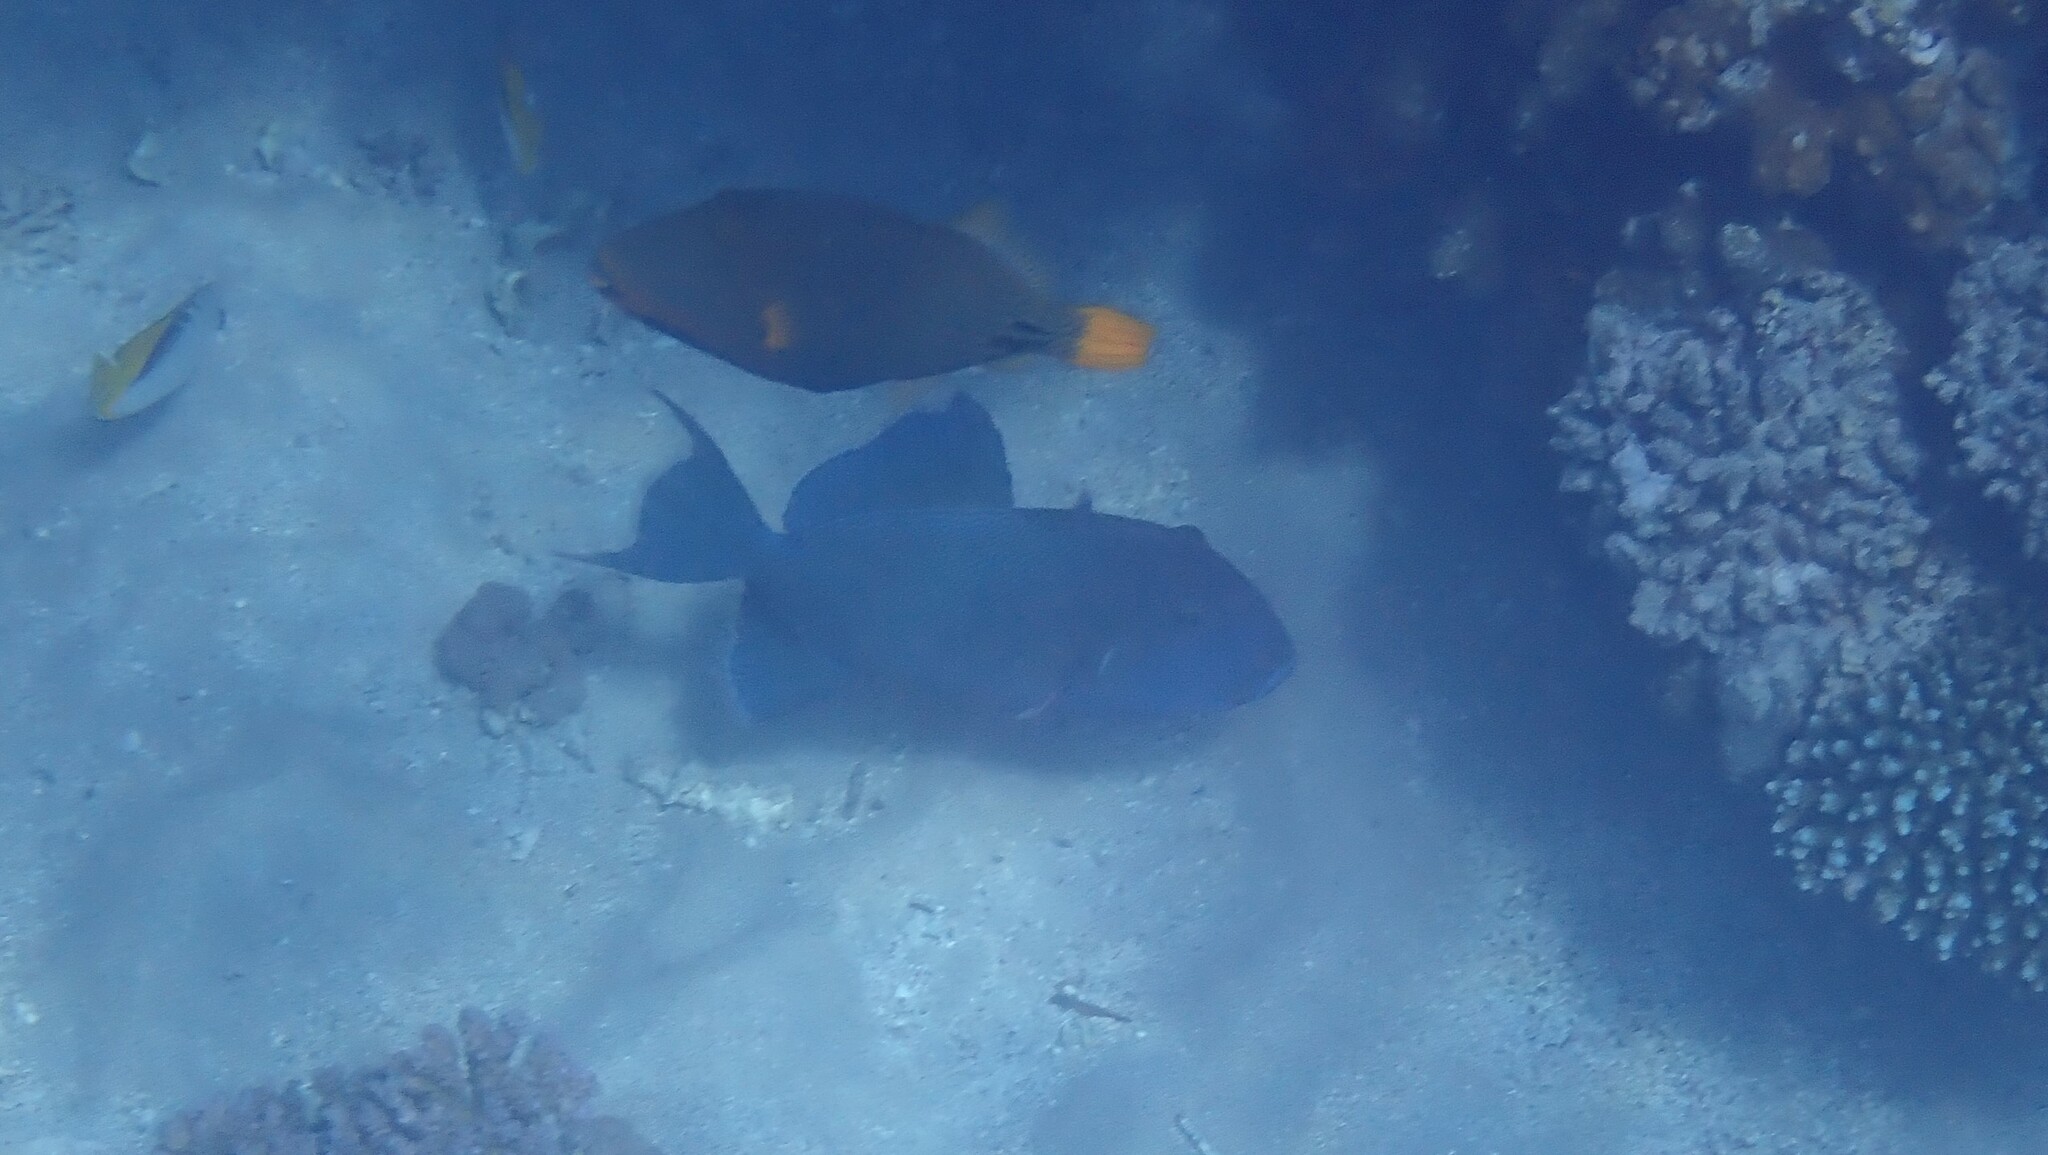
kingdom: Animalia
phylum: Chordata
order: Tetraodontiformes
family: Balistidae
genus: Pseudobalistes
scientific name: Pseudobalistes fuscus
